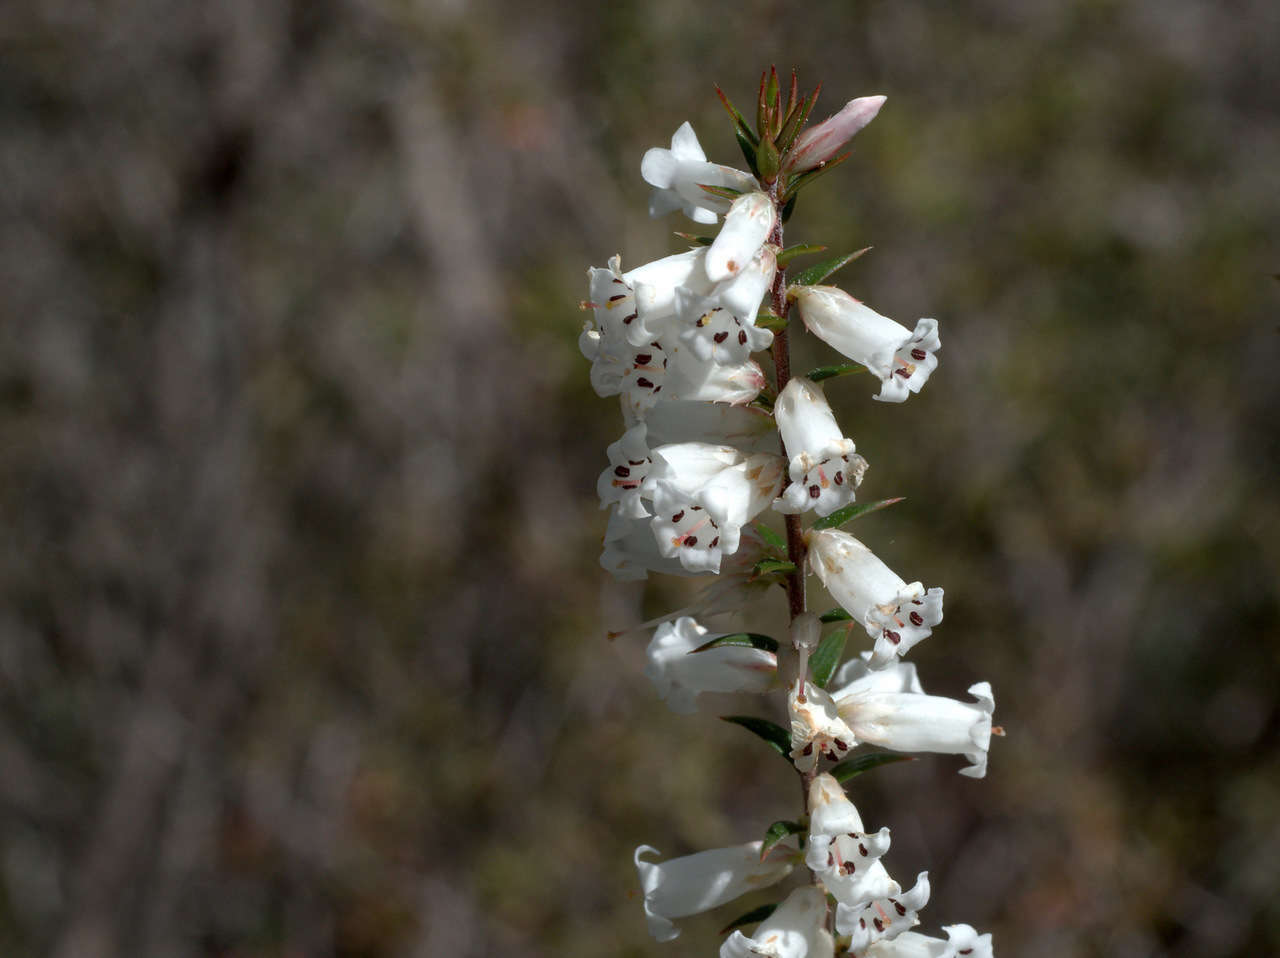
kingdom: Plantae
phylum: Tracheophyta
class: Magnoliopsida
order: Ericales
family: Ericaceae
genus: Epacris
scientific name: Epacris impressa
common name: Common-heath
